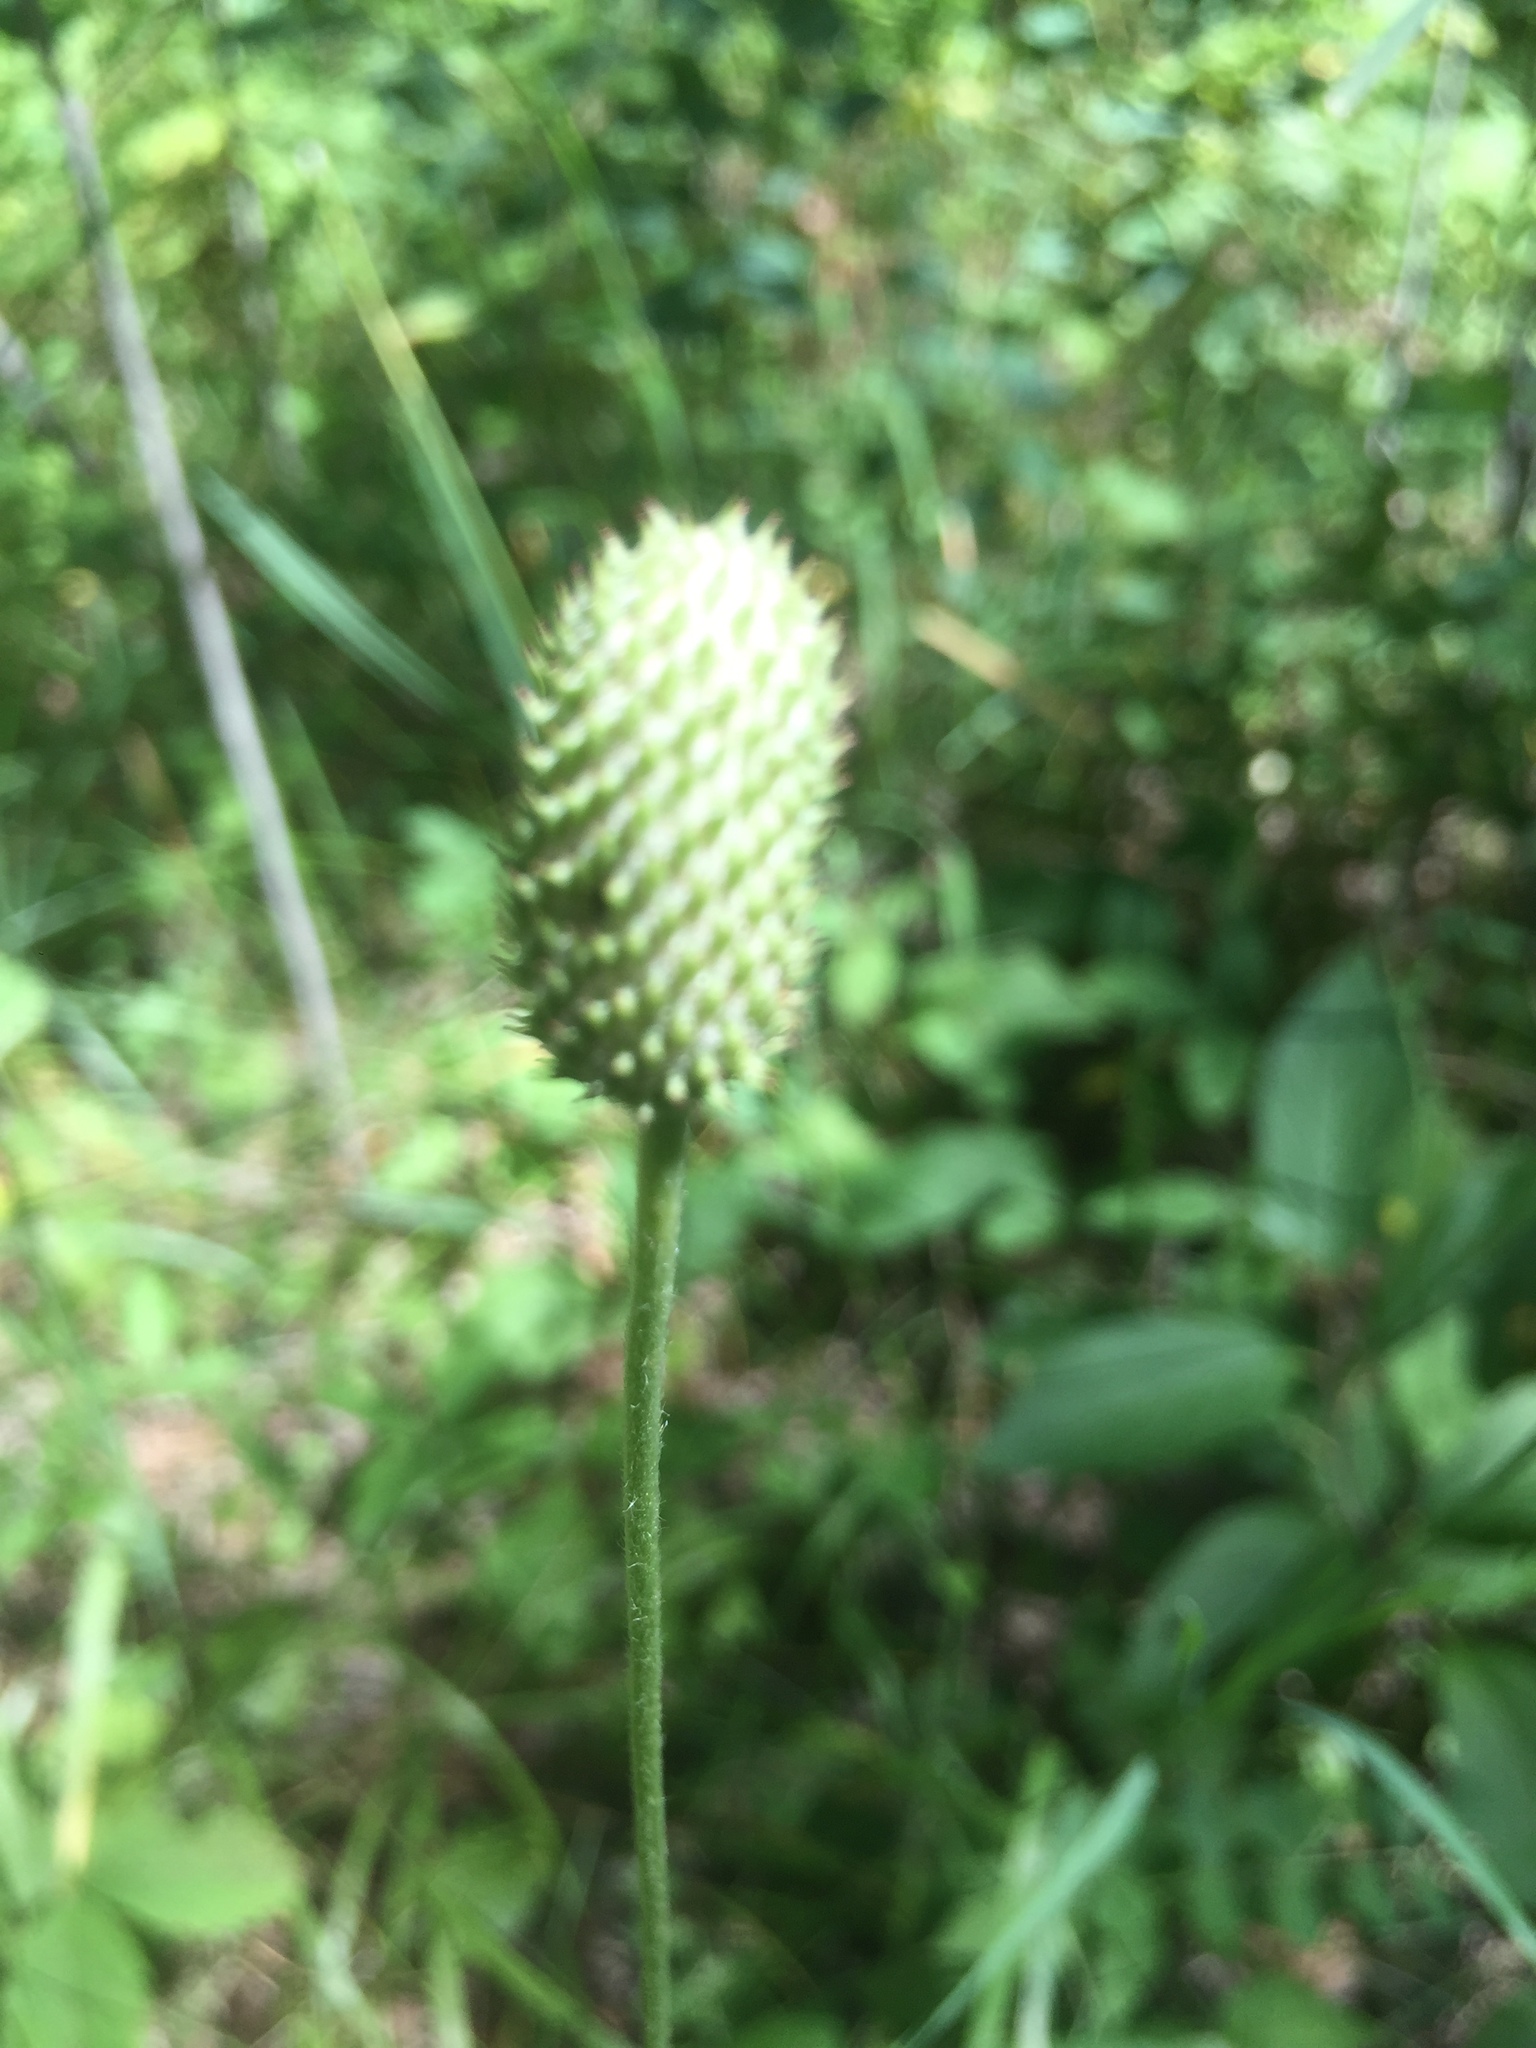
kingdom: Plantae
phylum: Tracheophyta
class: Magnoliopsida
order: Ranunculales
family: Ranunculaceae
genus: Anemone
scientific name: Anemone virginiana
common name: Tall anemone
